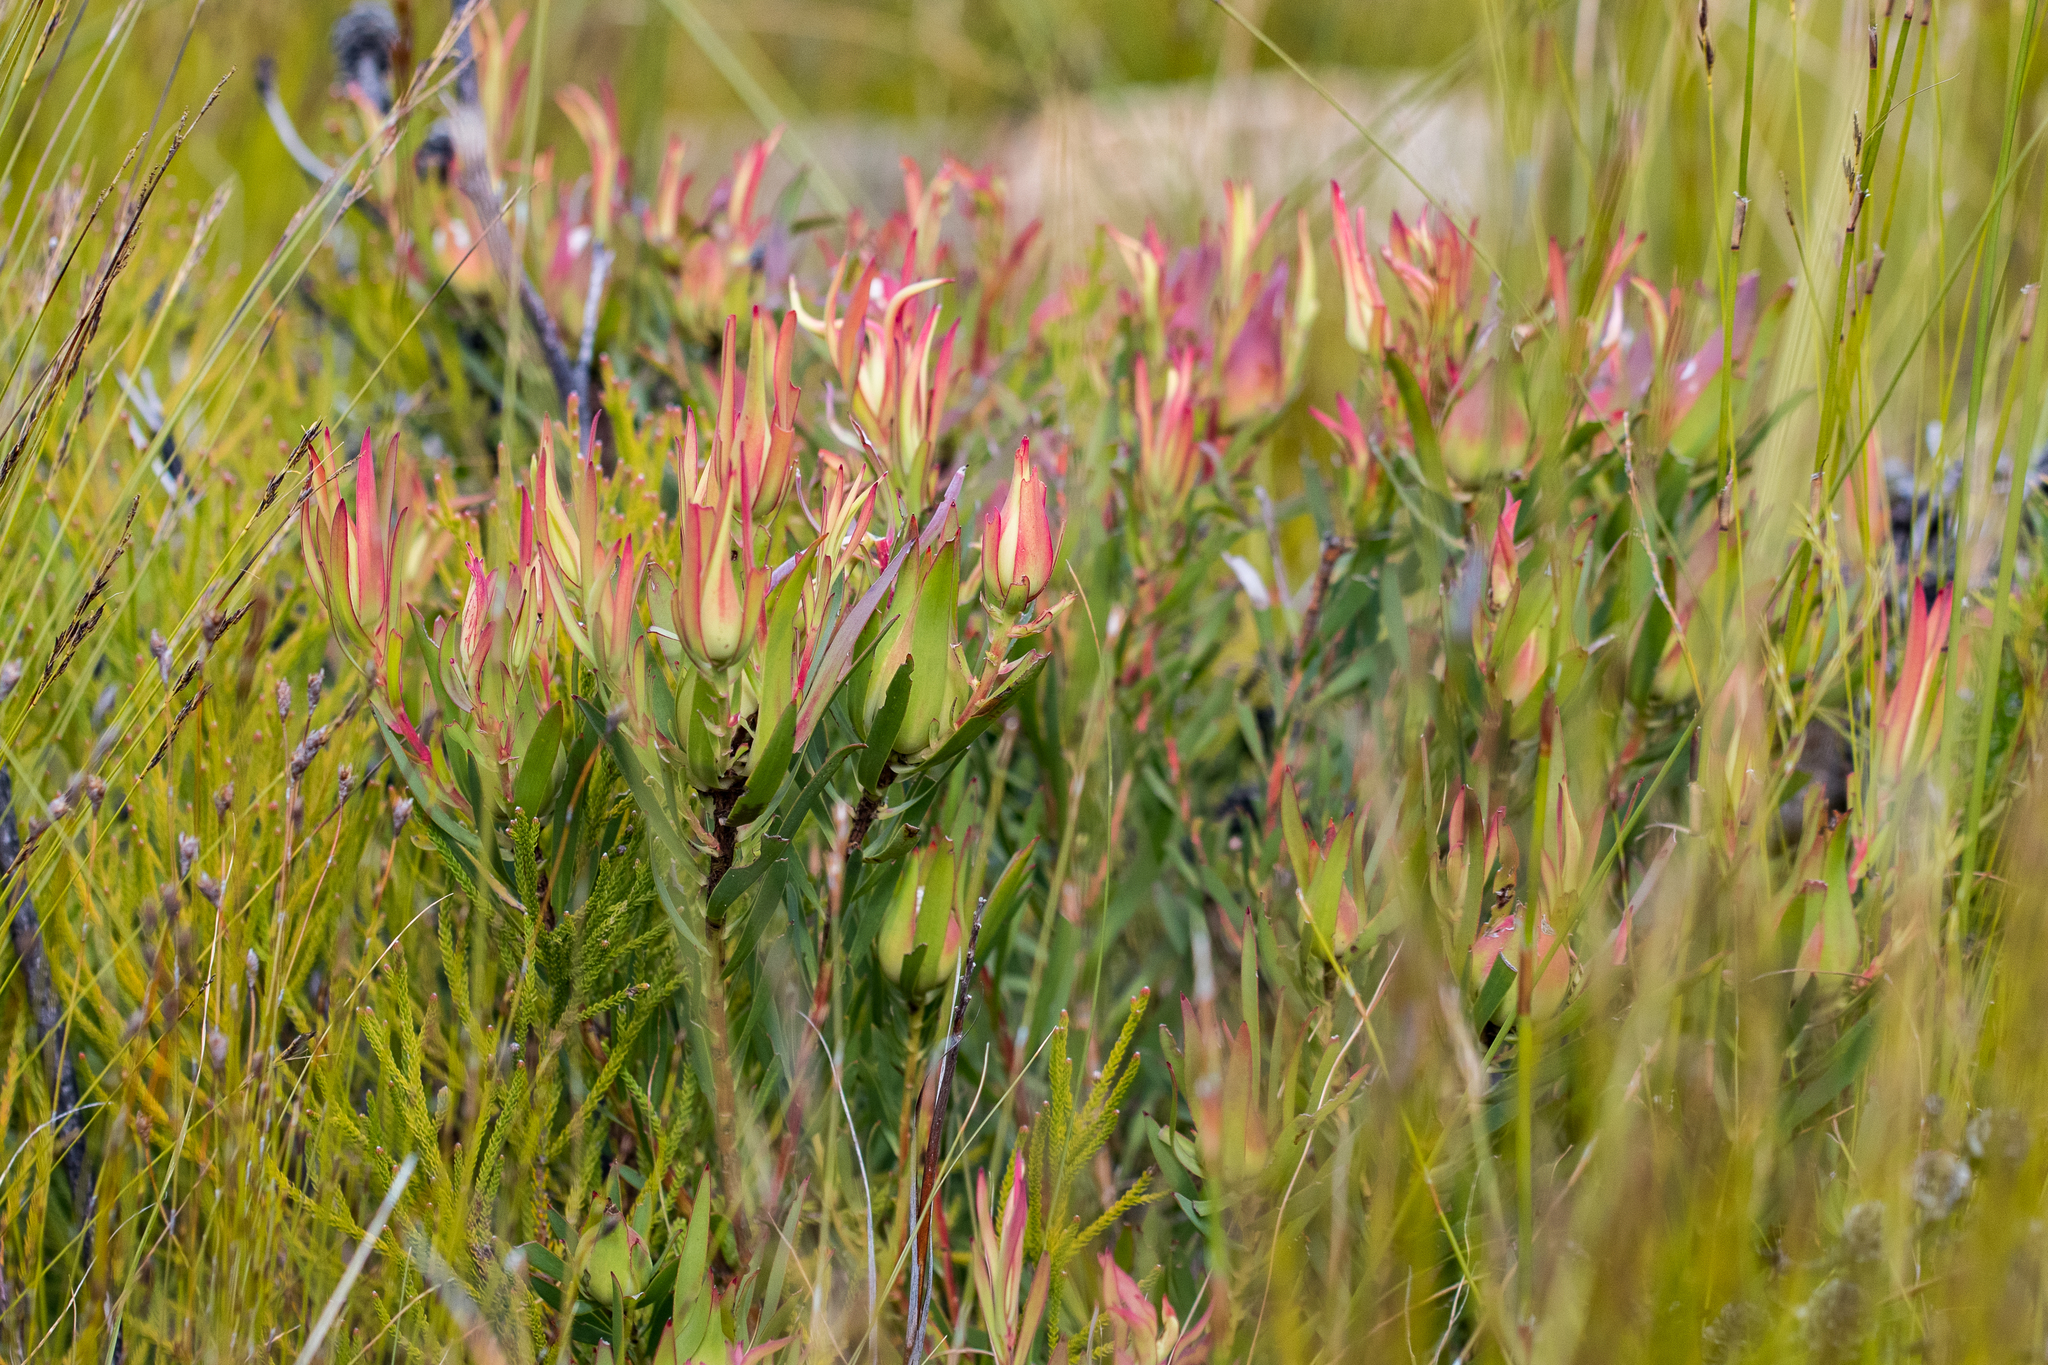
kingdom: Plantae
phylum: Tracheophyta
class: Magnoliopsida
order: Proteales
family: Proteaceae
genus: Leucadendron
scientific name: Leucadendron salignum
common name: Common sunshine conebush
